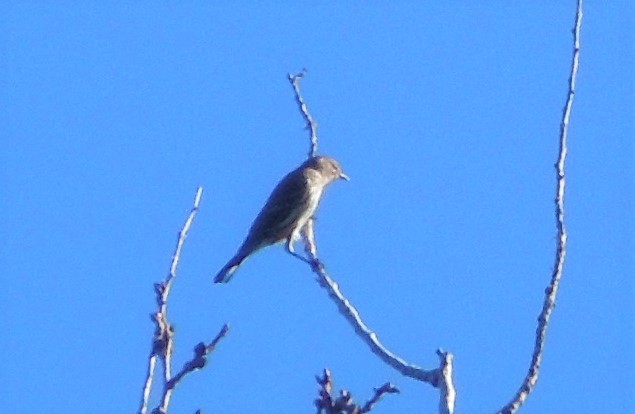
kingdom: Animalia
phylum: Chordata
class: Aves
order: Passeriformes
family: Parulidae
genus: Setophaga
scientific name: Setophaga coronata
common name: Myrtle warbler
